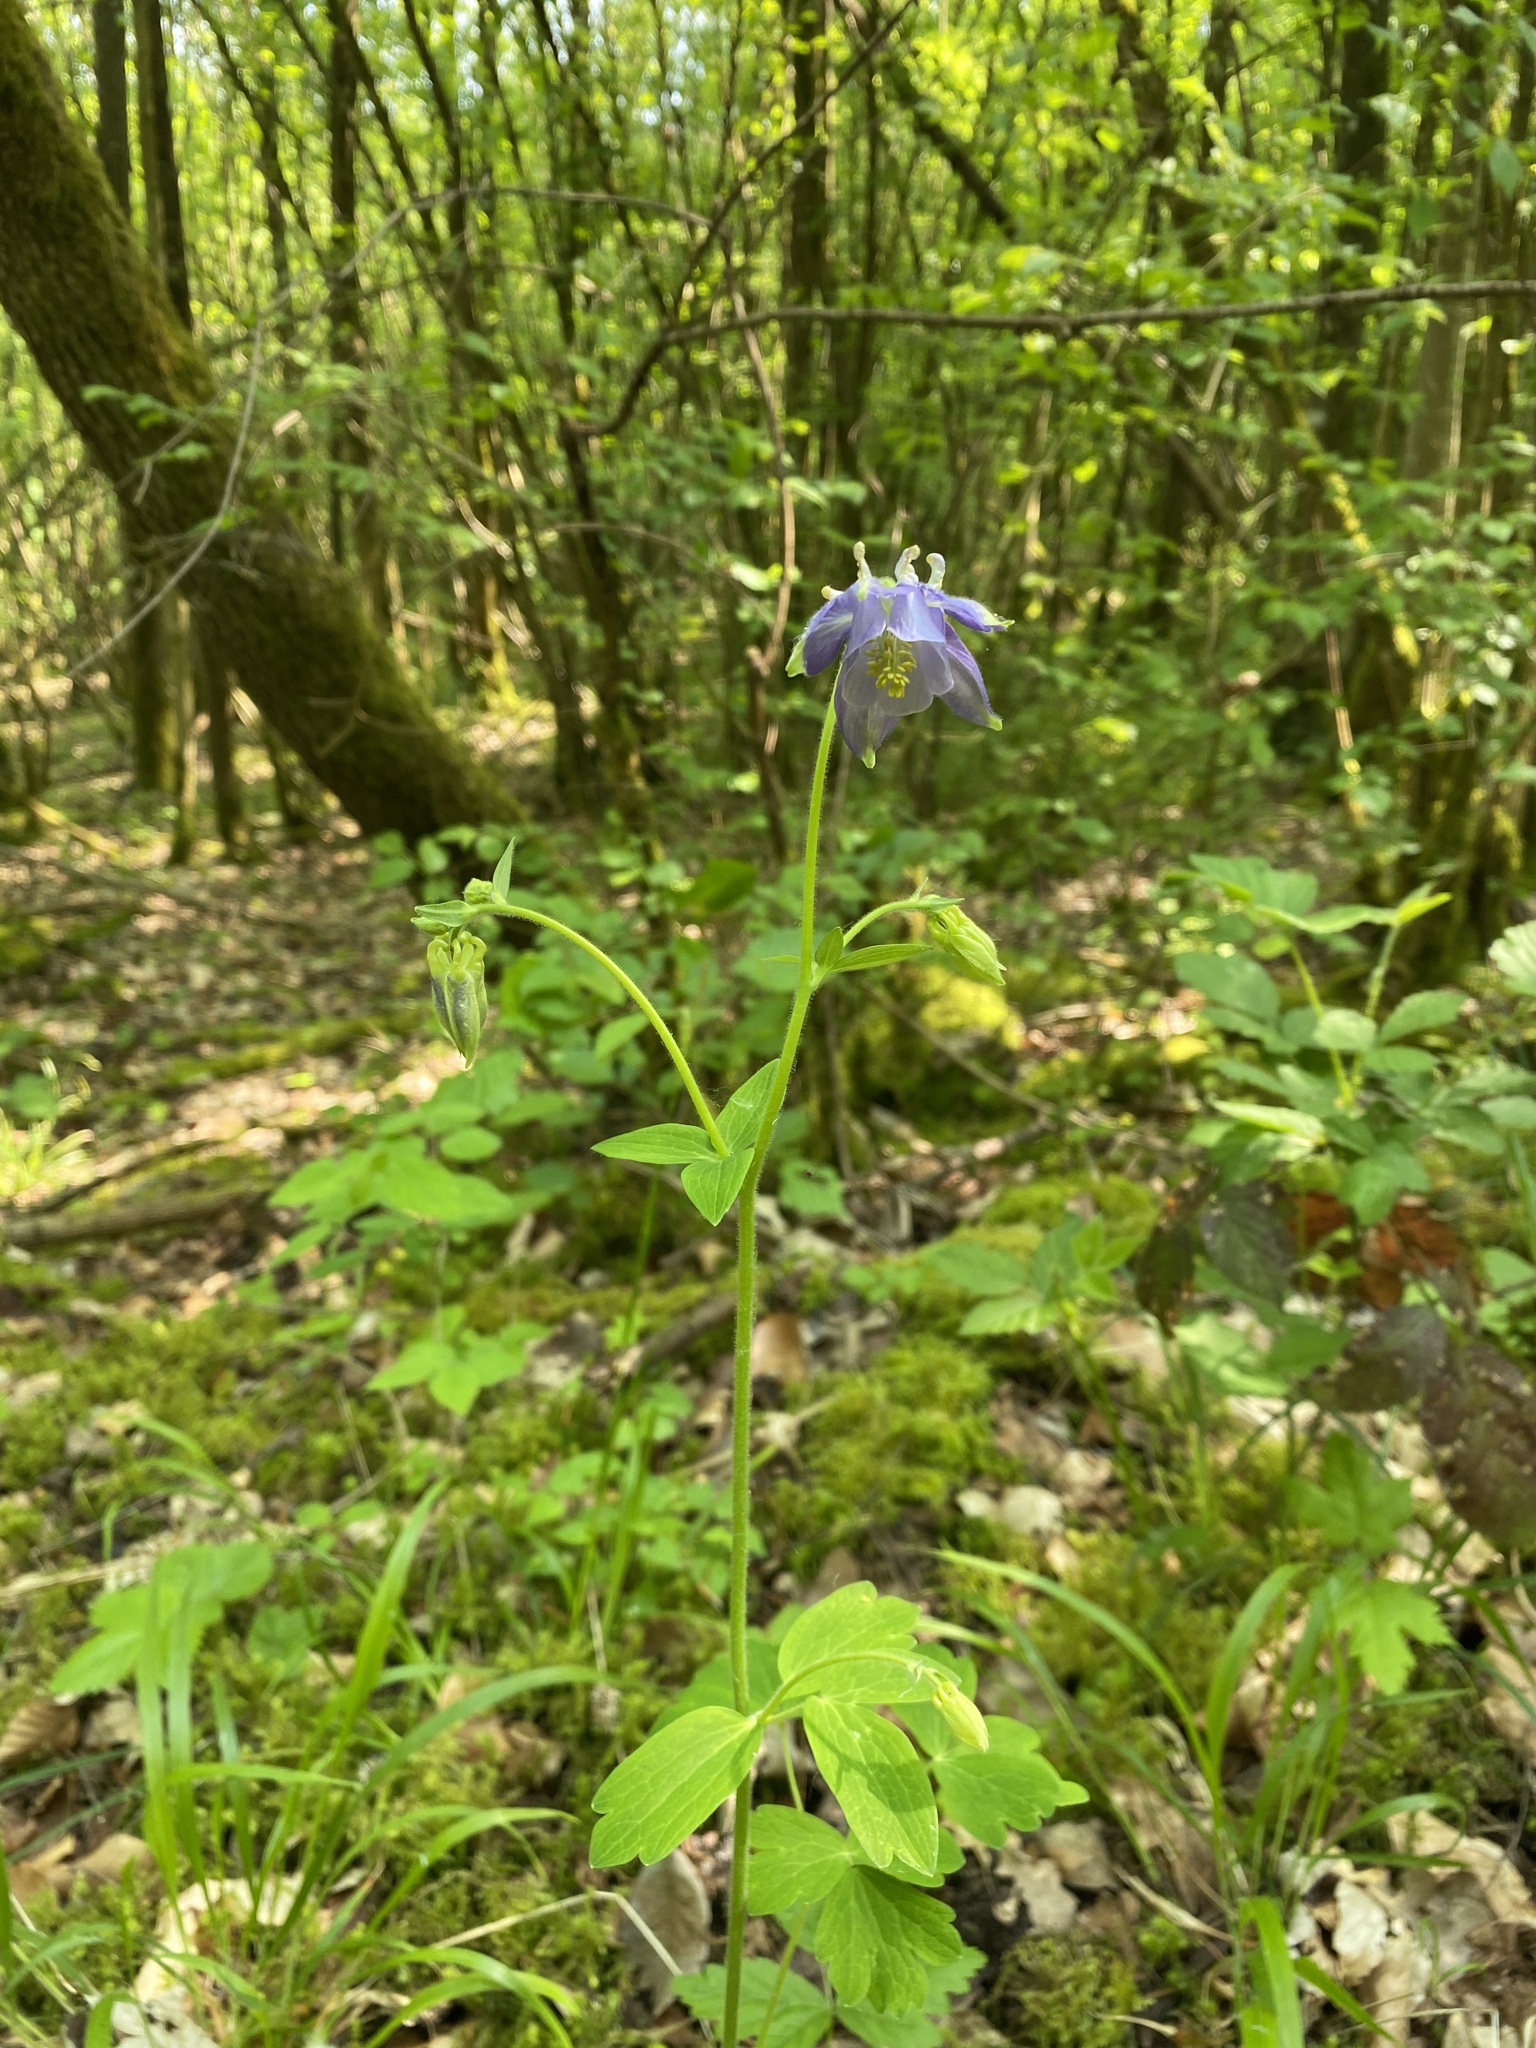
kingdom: Plantae
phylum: Tracheophyta
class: Magnoliopsida
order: Ranunculales
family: Ranunculaceae
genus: Aquilegia
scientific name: Aquilegia vulgaris
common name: Columbine
